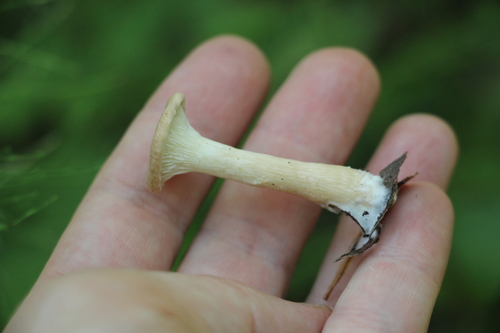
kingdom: Fungi
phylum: Basidiomycota
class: Agaricomycetes
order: Agaricales
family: Tricholomataceae
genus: Infundibulicybe
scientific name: Infundibulicybe gibba
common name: Common funnel
